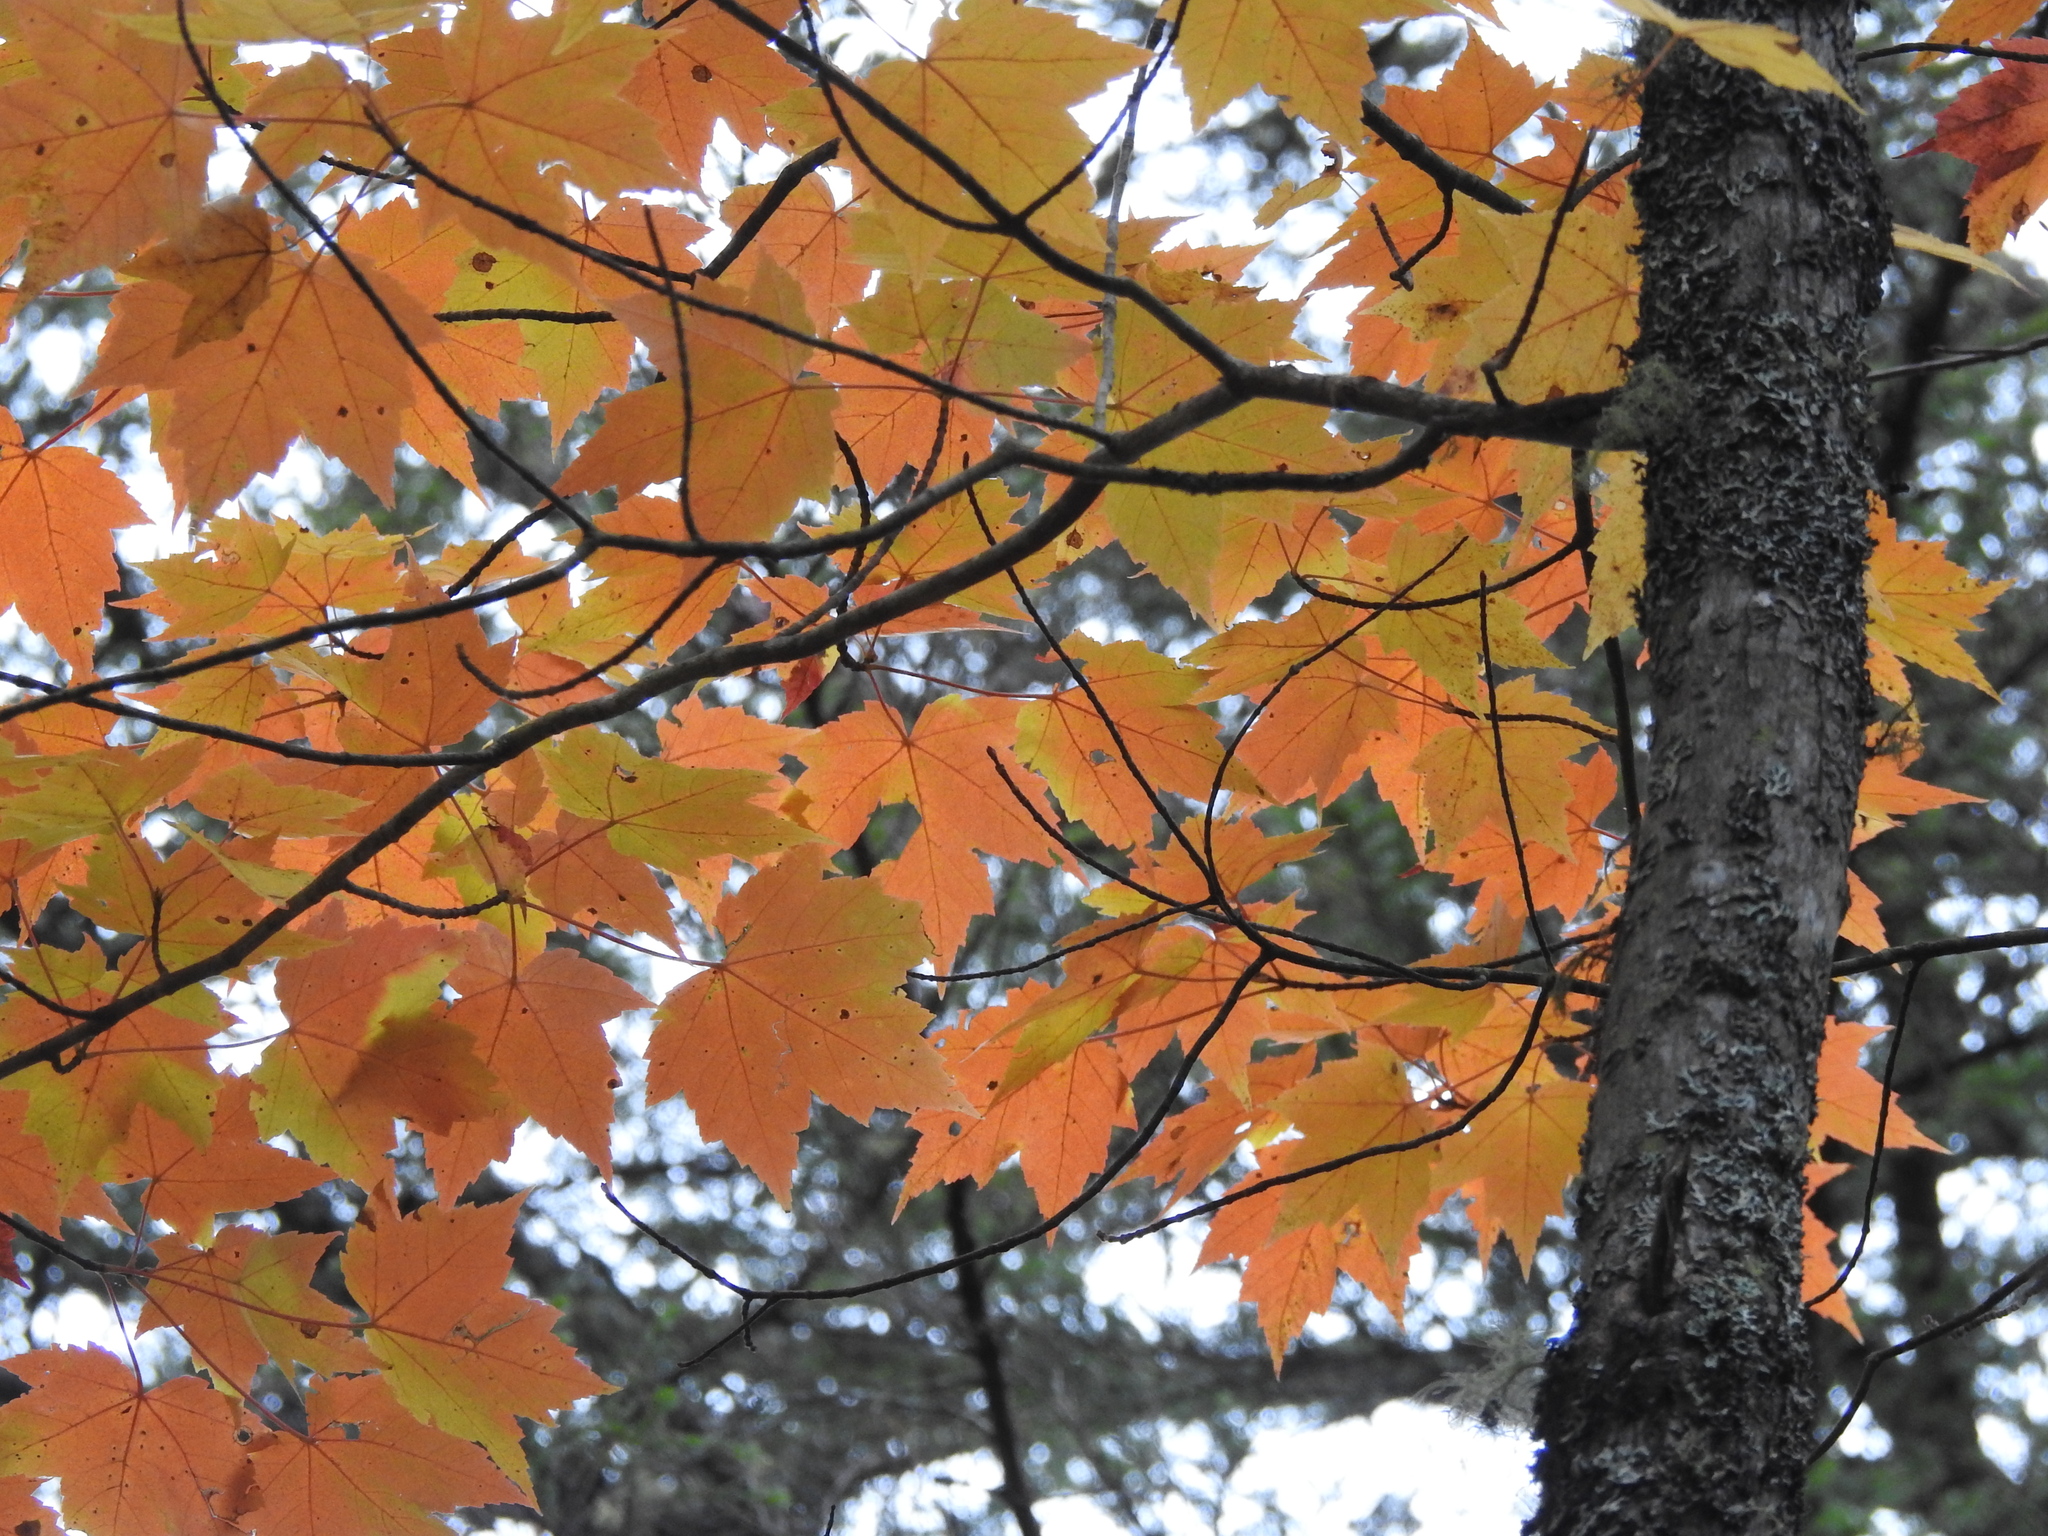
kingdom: Plantae
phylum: Tracheophyta
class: Magnoliopsida
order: Sapindales
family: Sapindaceae
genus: Acer
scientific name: Acer rubrum
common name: Red maple
